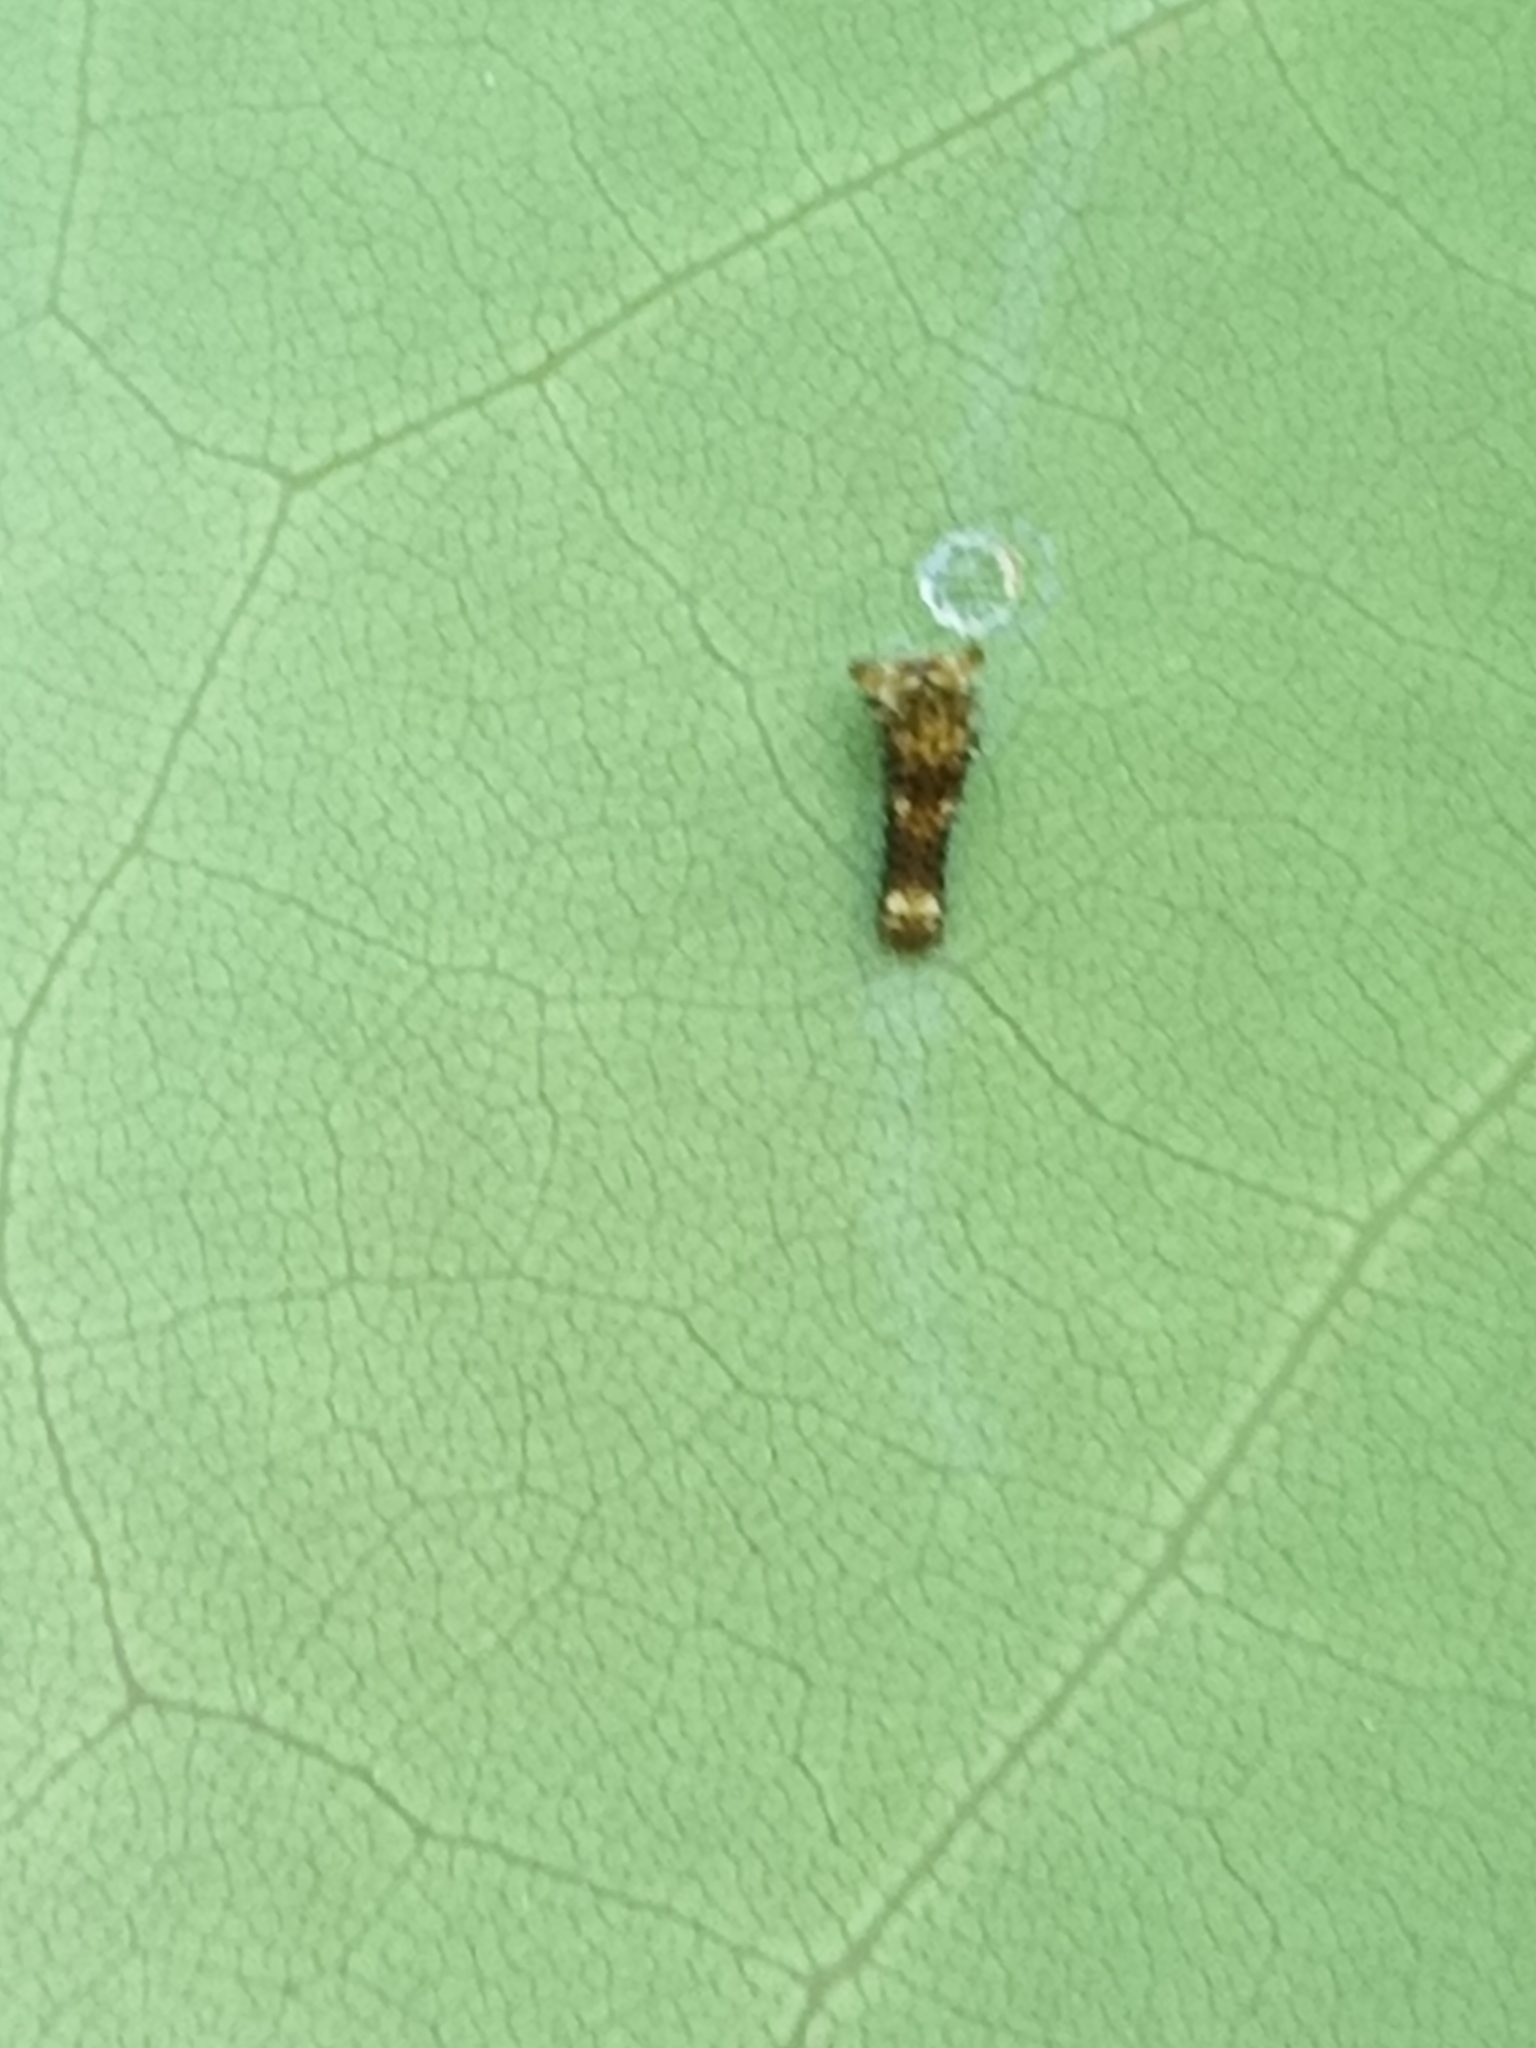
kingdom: Animalia
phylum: Arthropoda
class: Insecta
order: Lepidoptera
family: Papilionidae
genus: Papilio
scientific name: Papilio troilus
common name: Spicebush swallowtail
